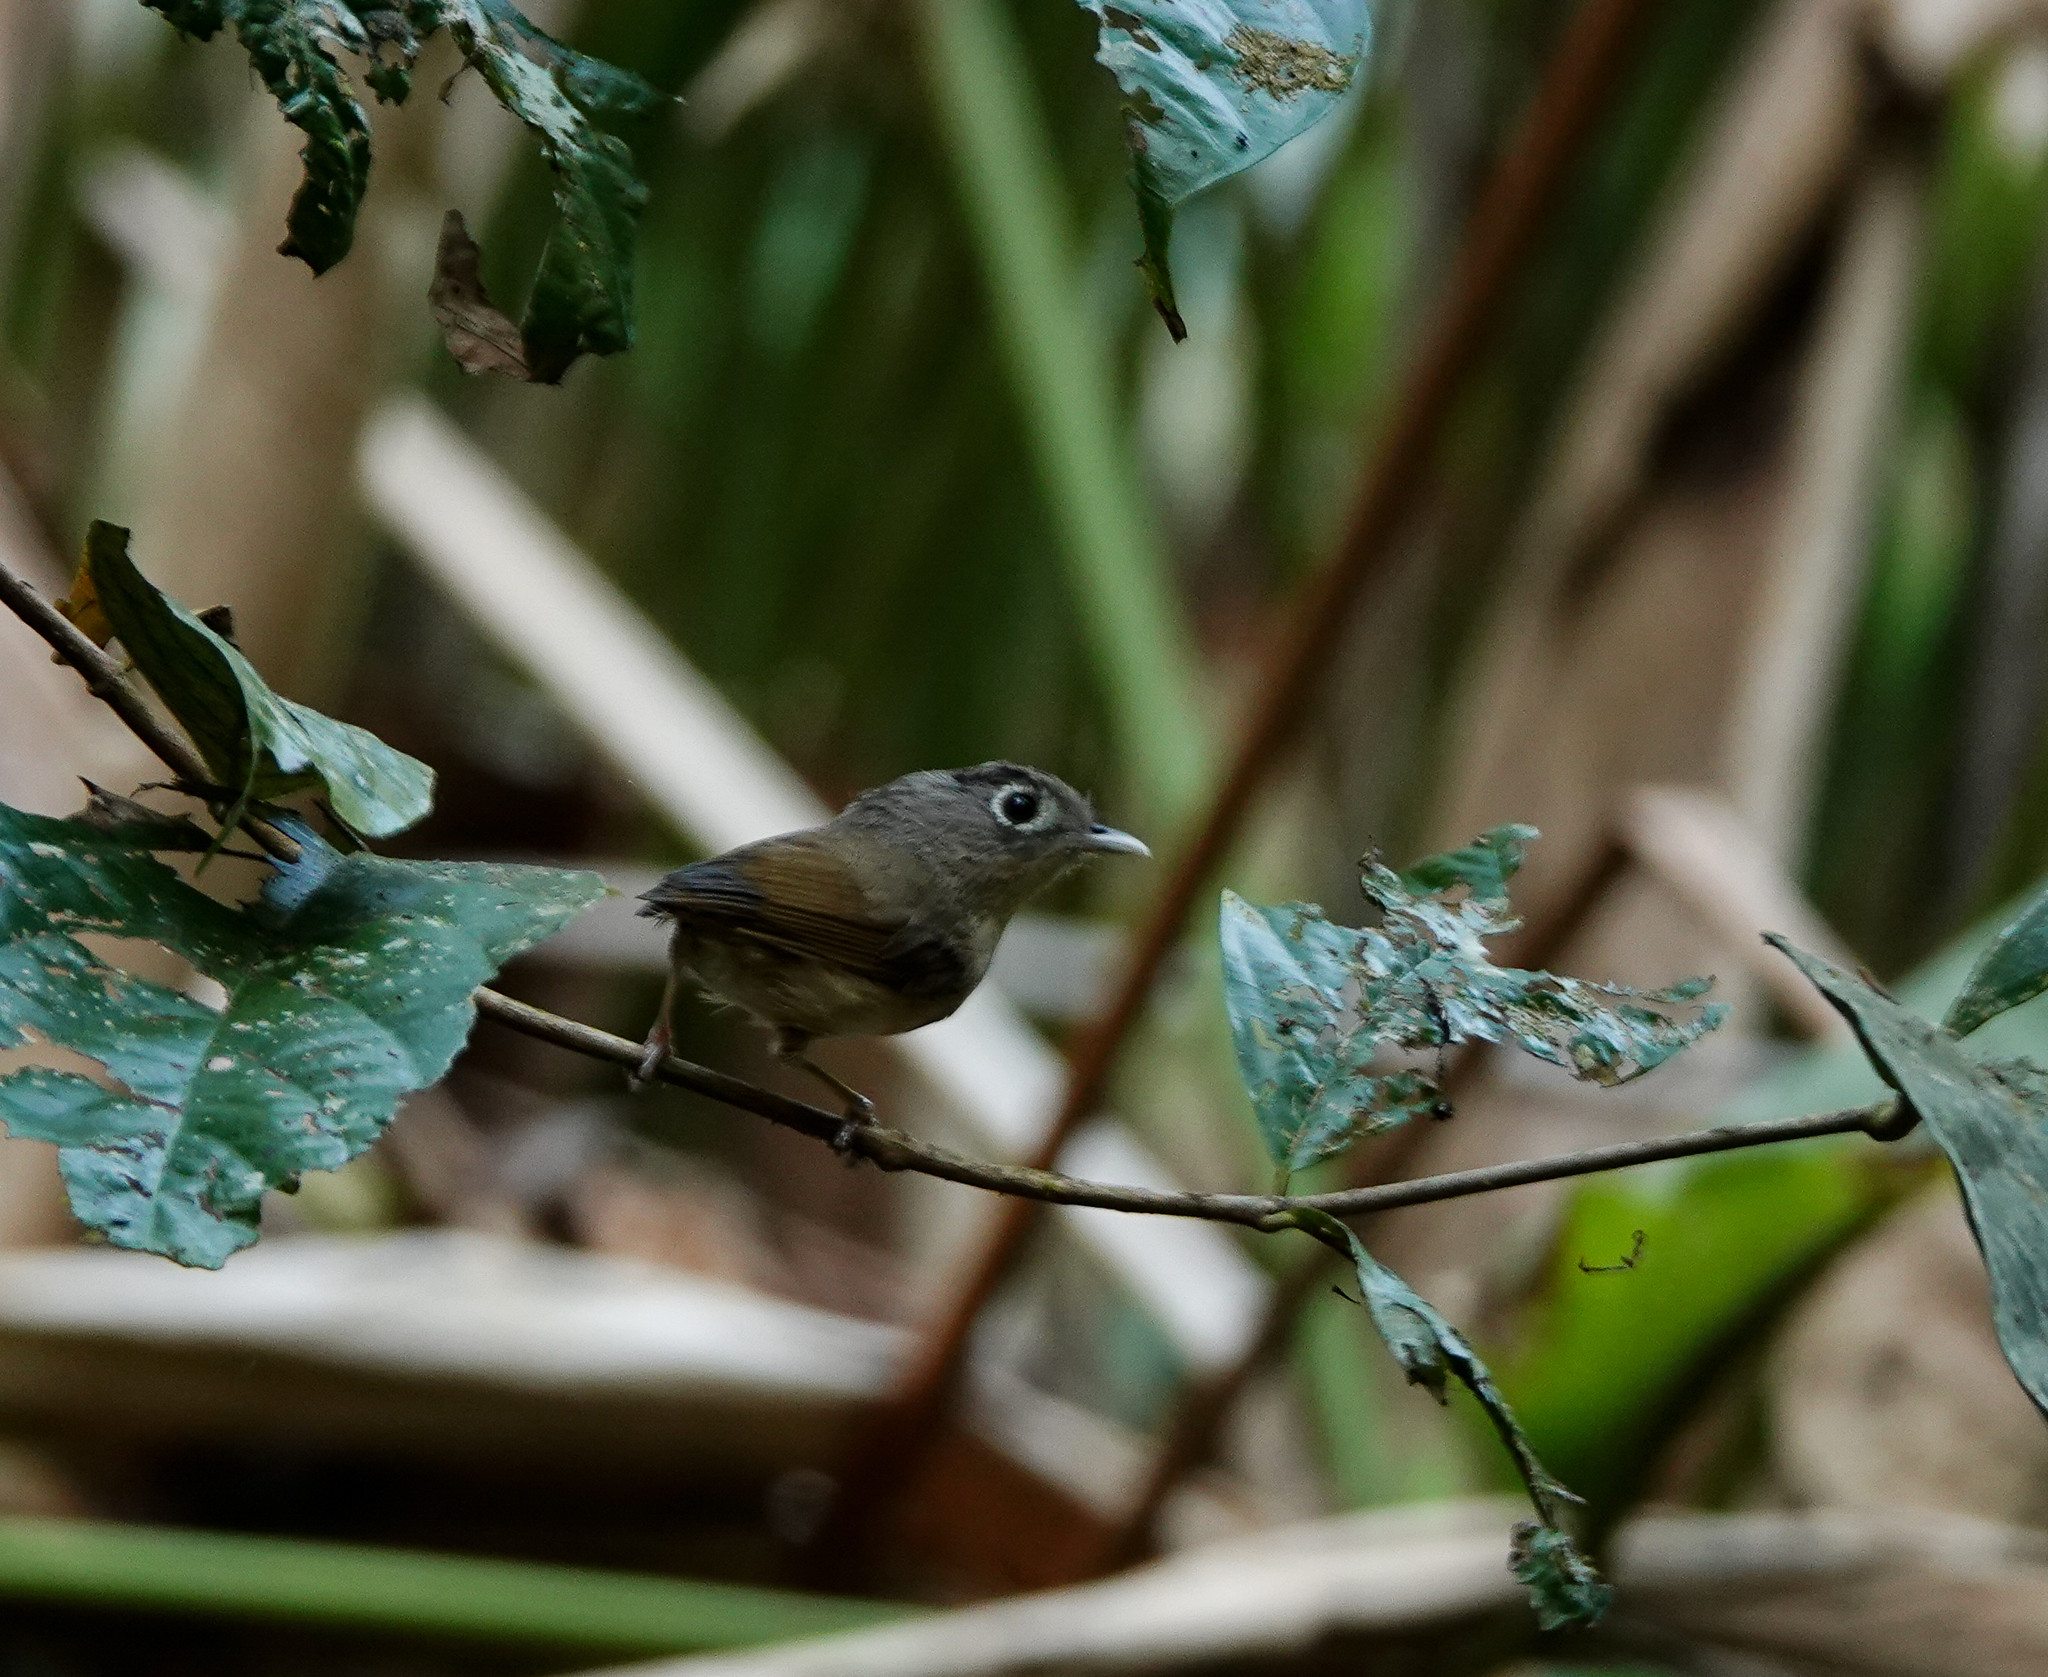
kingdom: Animalia
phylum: Chordata
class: Aves
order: Passeriformes
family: Pellorneidae
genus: Alcippe
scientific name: Alcippe nipalensis
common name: Nepal fulvetta
